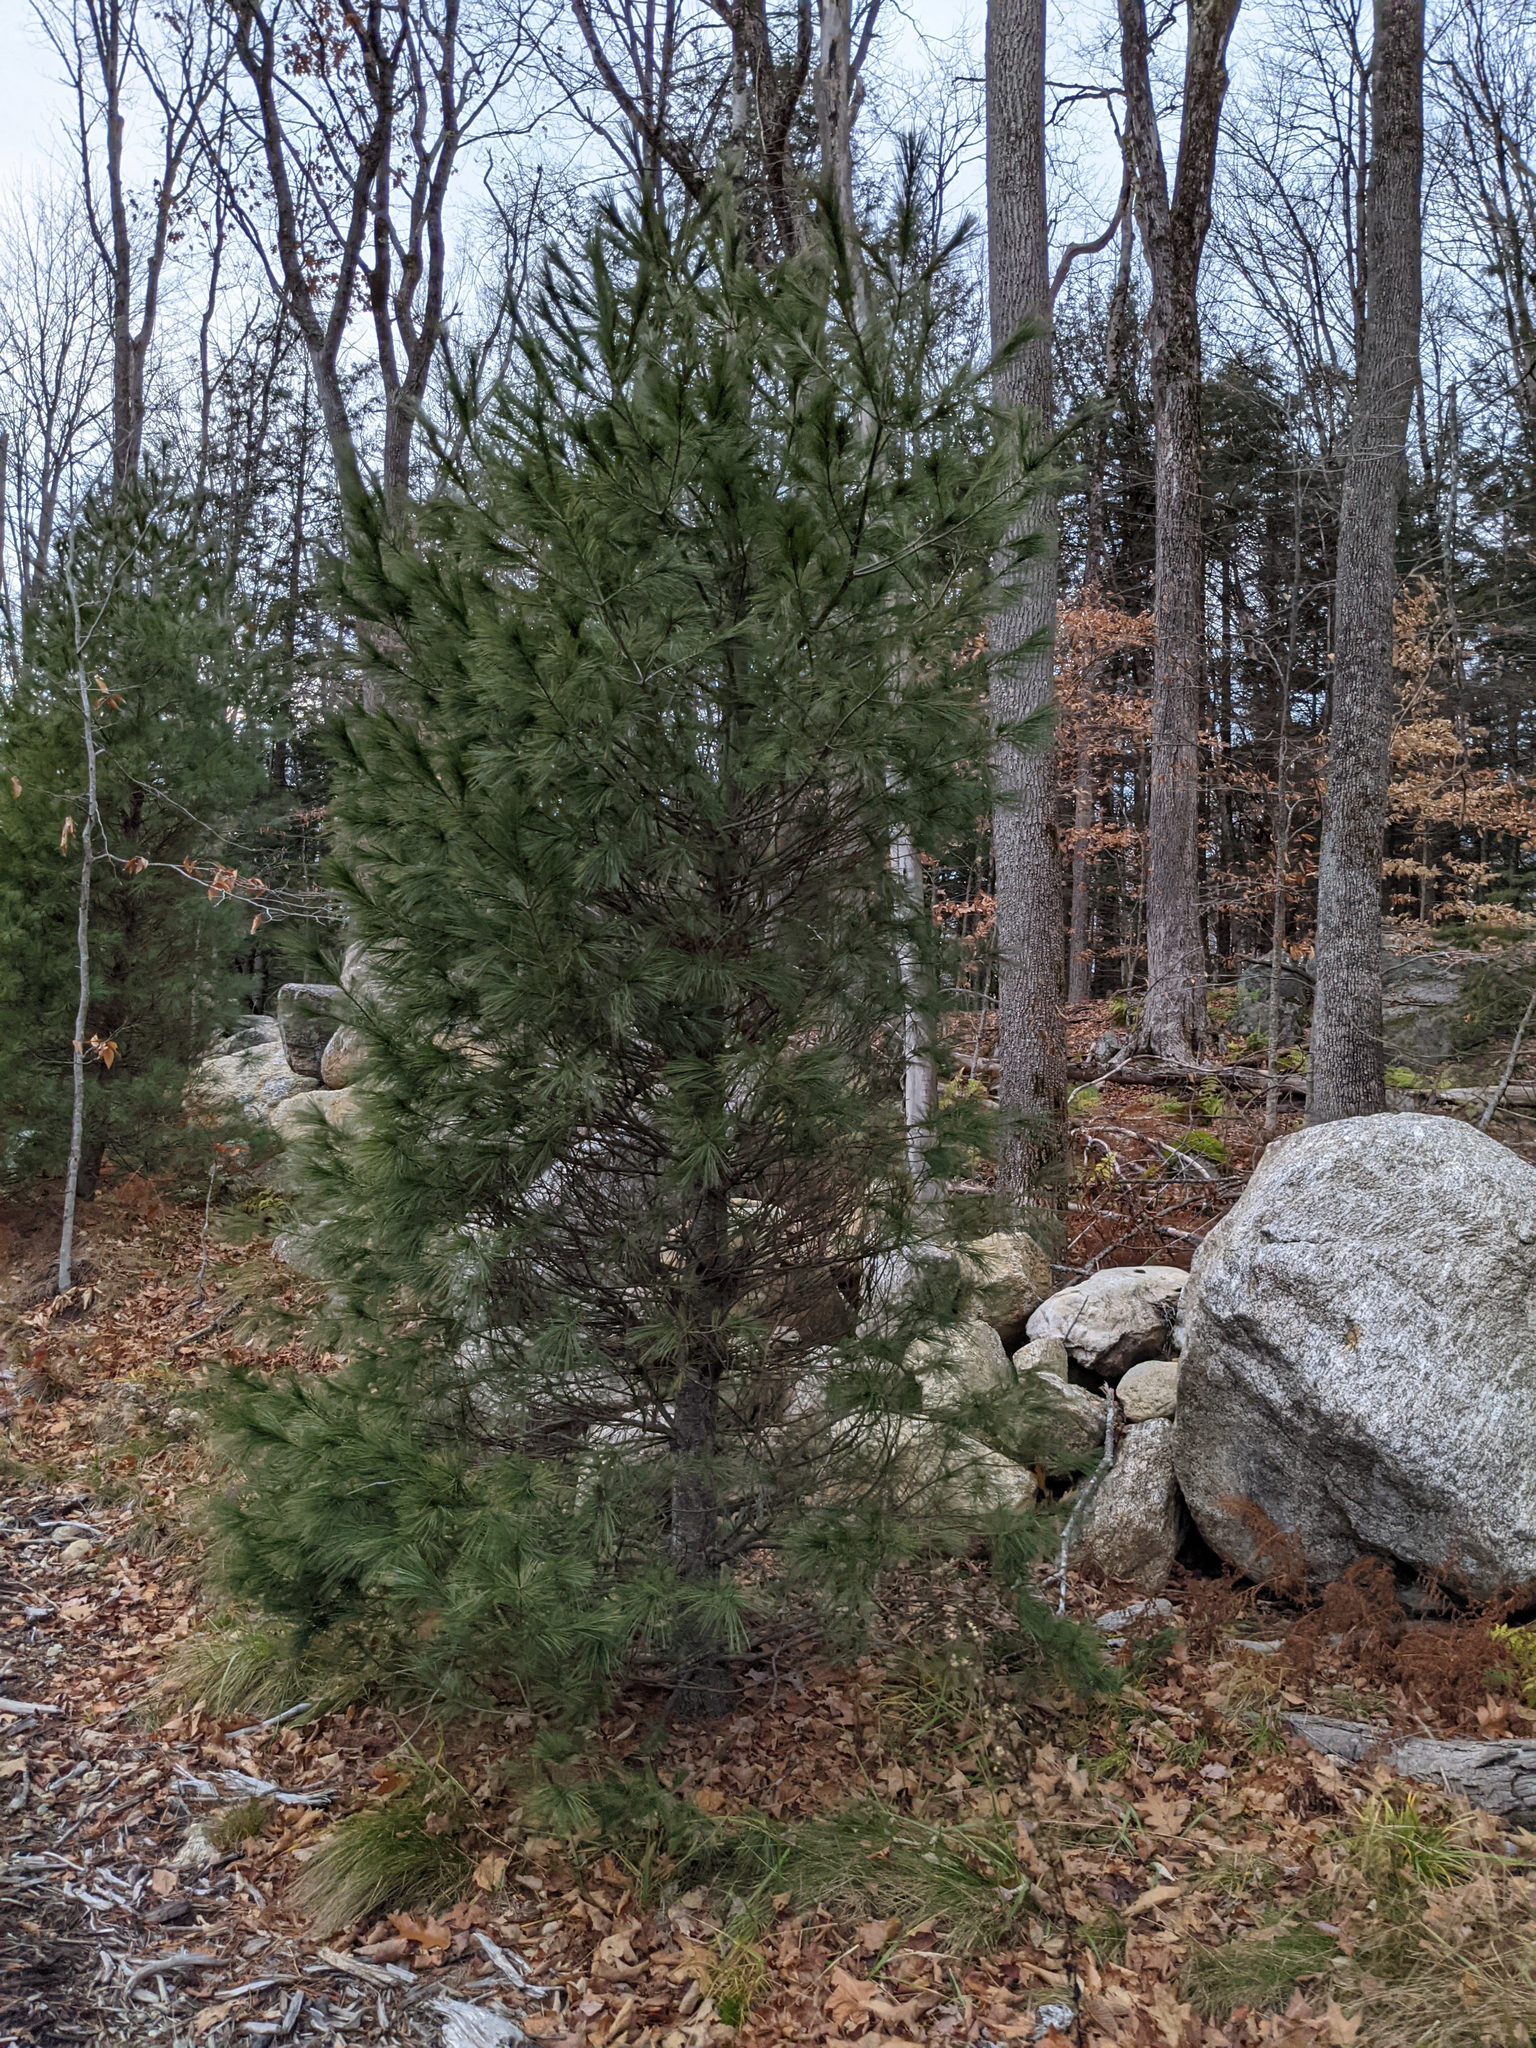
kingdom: Plantae
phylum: Tracheophyta
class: Pinopsida
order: Pinales
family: Pinaceae
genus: Pinus
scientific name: Pinus strobus
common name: Weymouth pine
